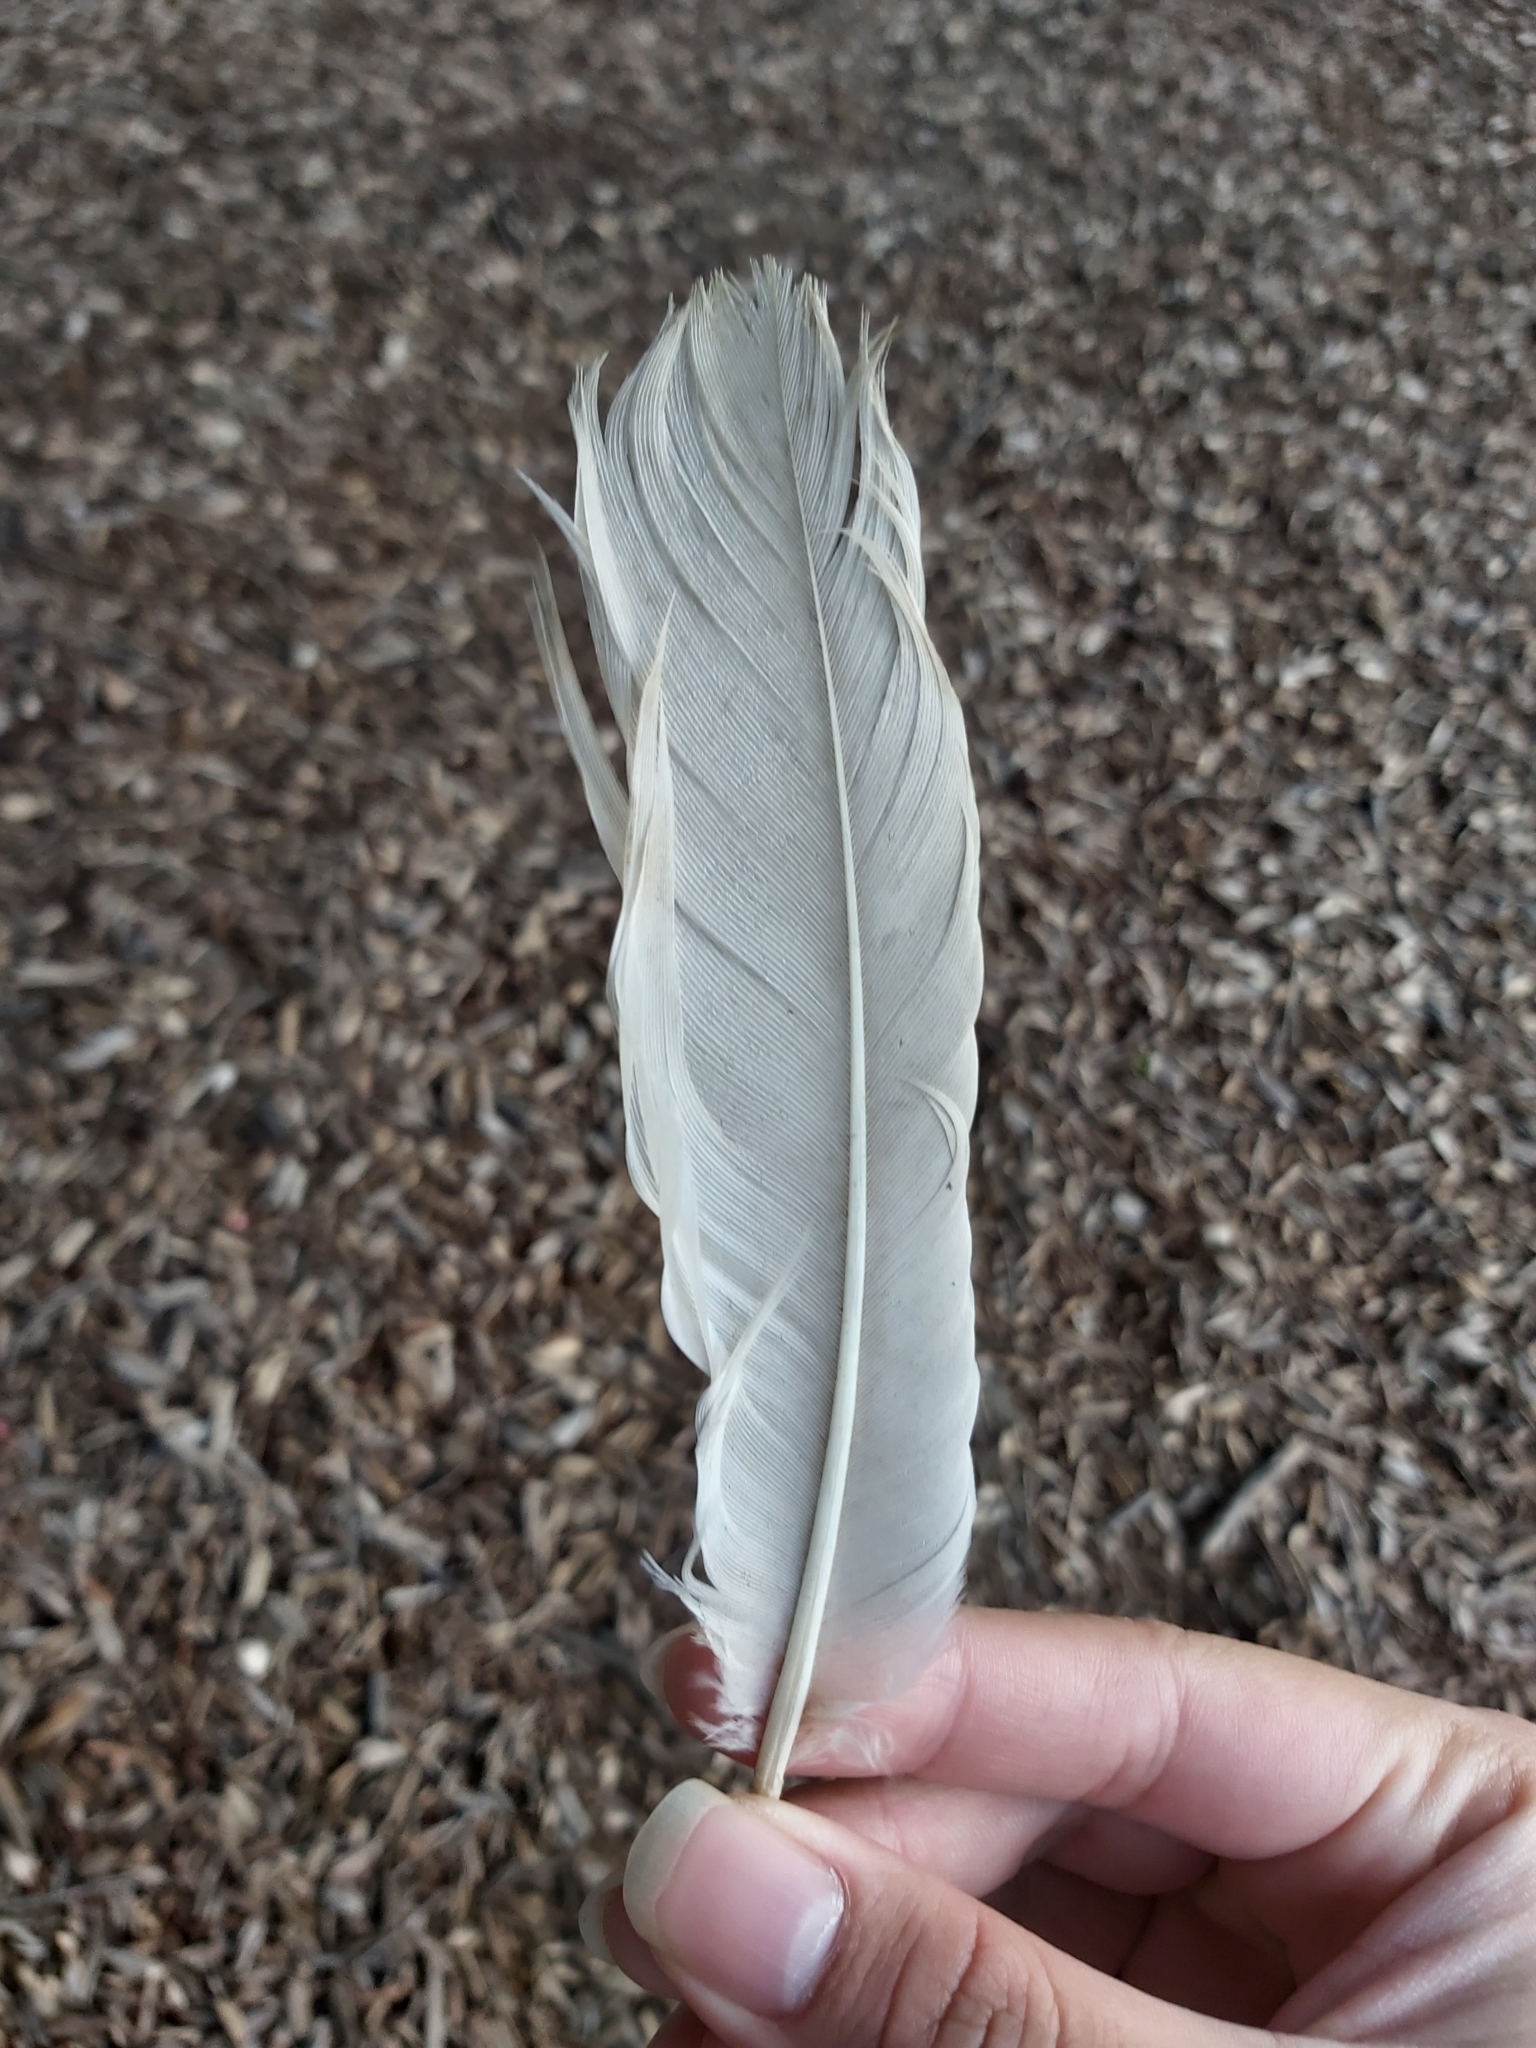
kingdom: Animalia
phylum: Chordata
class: Aves
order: Pelecaniformes
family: Threskiornithidae
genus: Threskiornis
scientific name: Threskiornis molucca
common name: Australian white ibis
